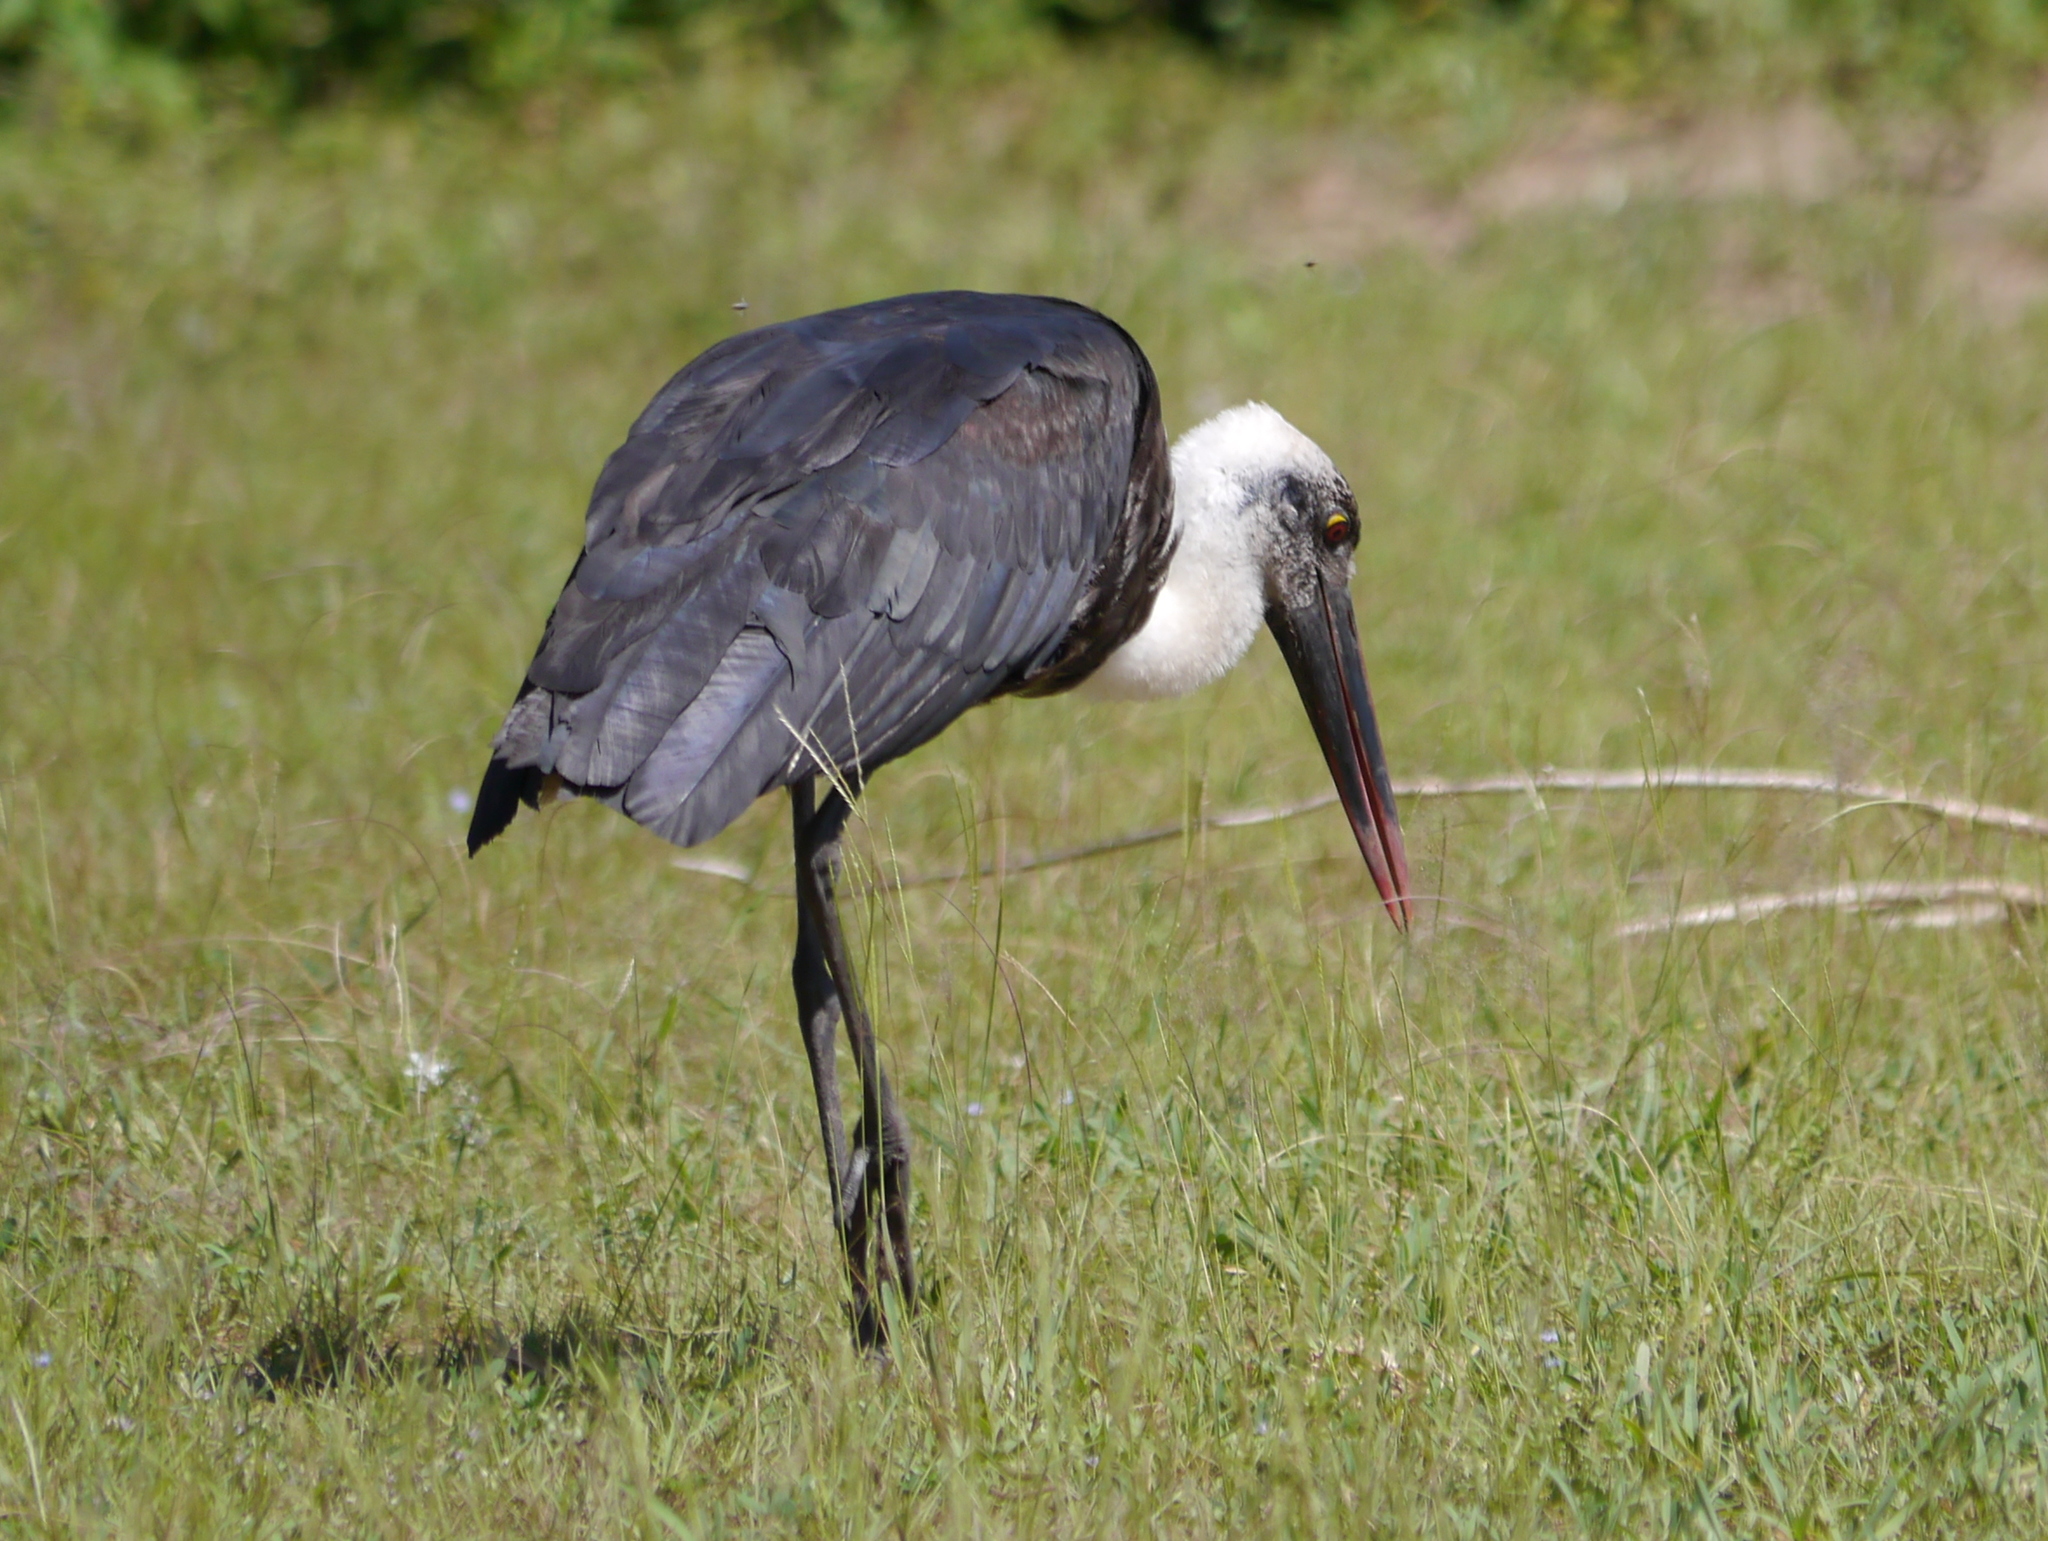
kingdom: Animalia
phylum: Chordata
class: Aves
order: Ciconiiformes
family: Ciconiidae
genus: Ciconia
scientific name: Ciconia microscelis
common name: African woollyneck
